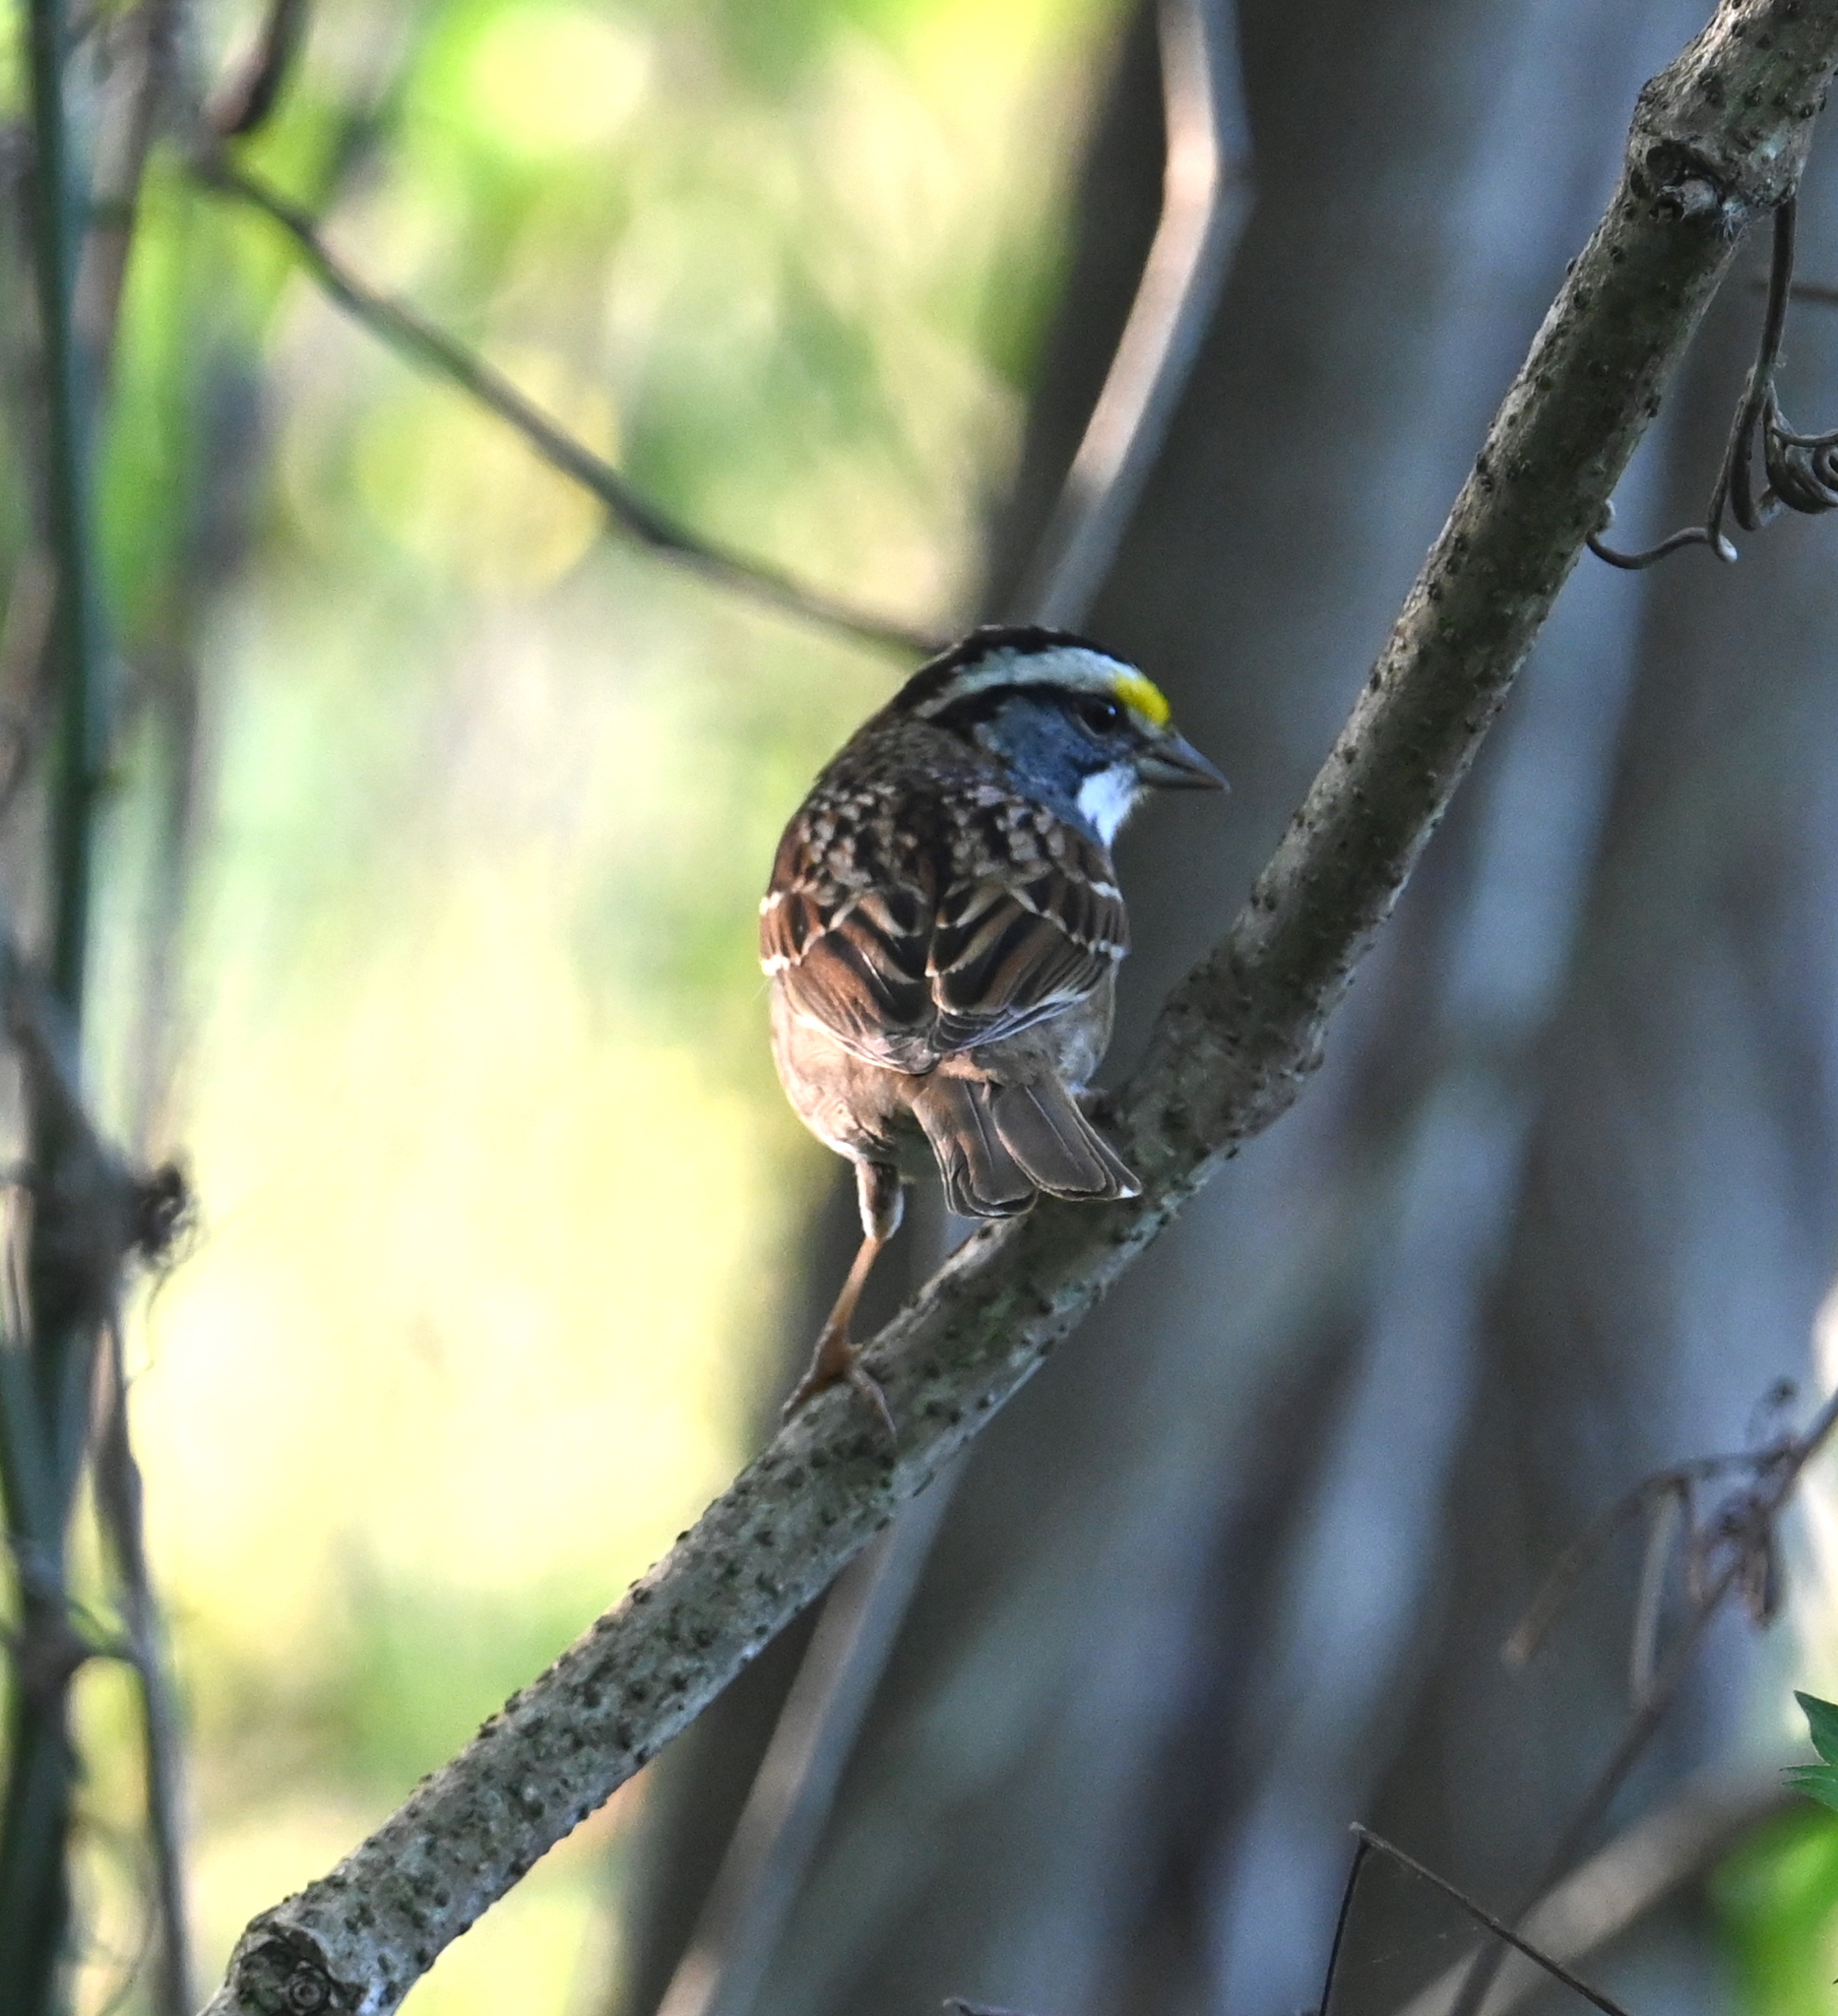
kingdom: Animalia
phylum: Chordata
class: Aves
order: Passeriformes
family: Passerellidae
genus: Zonotrichia
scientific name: Zonotrichia albicollis
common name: White-throated sparrow
